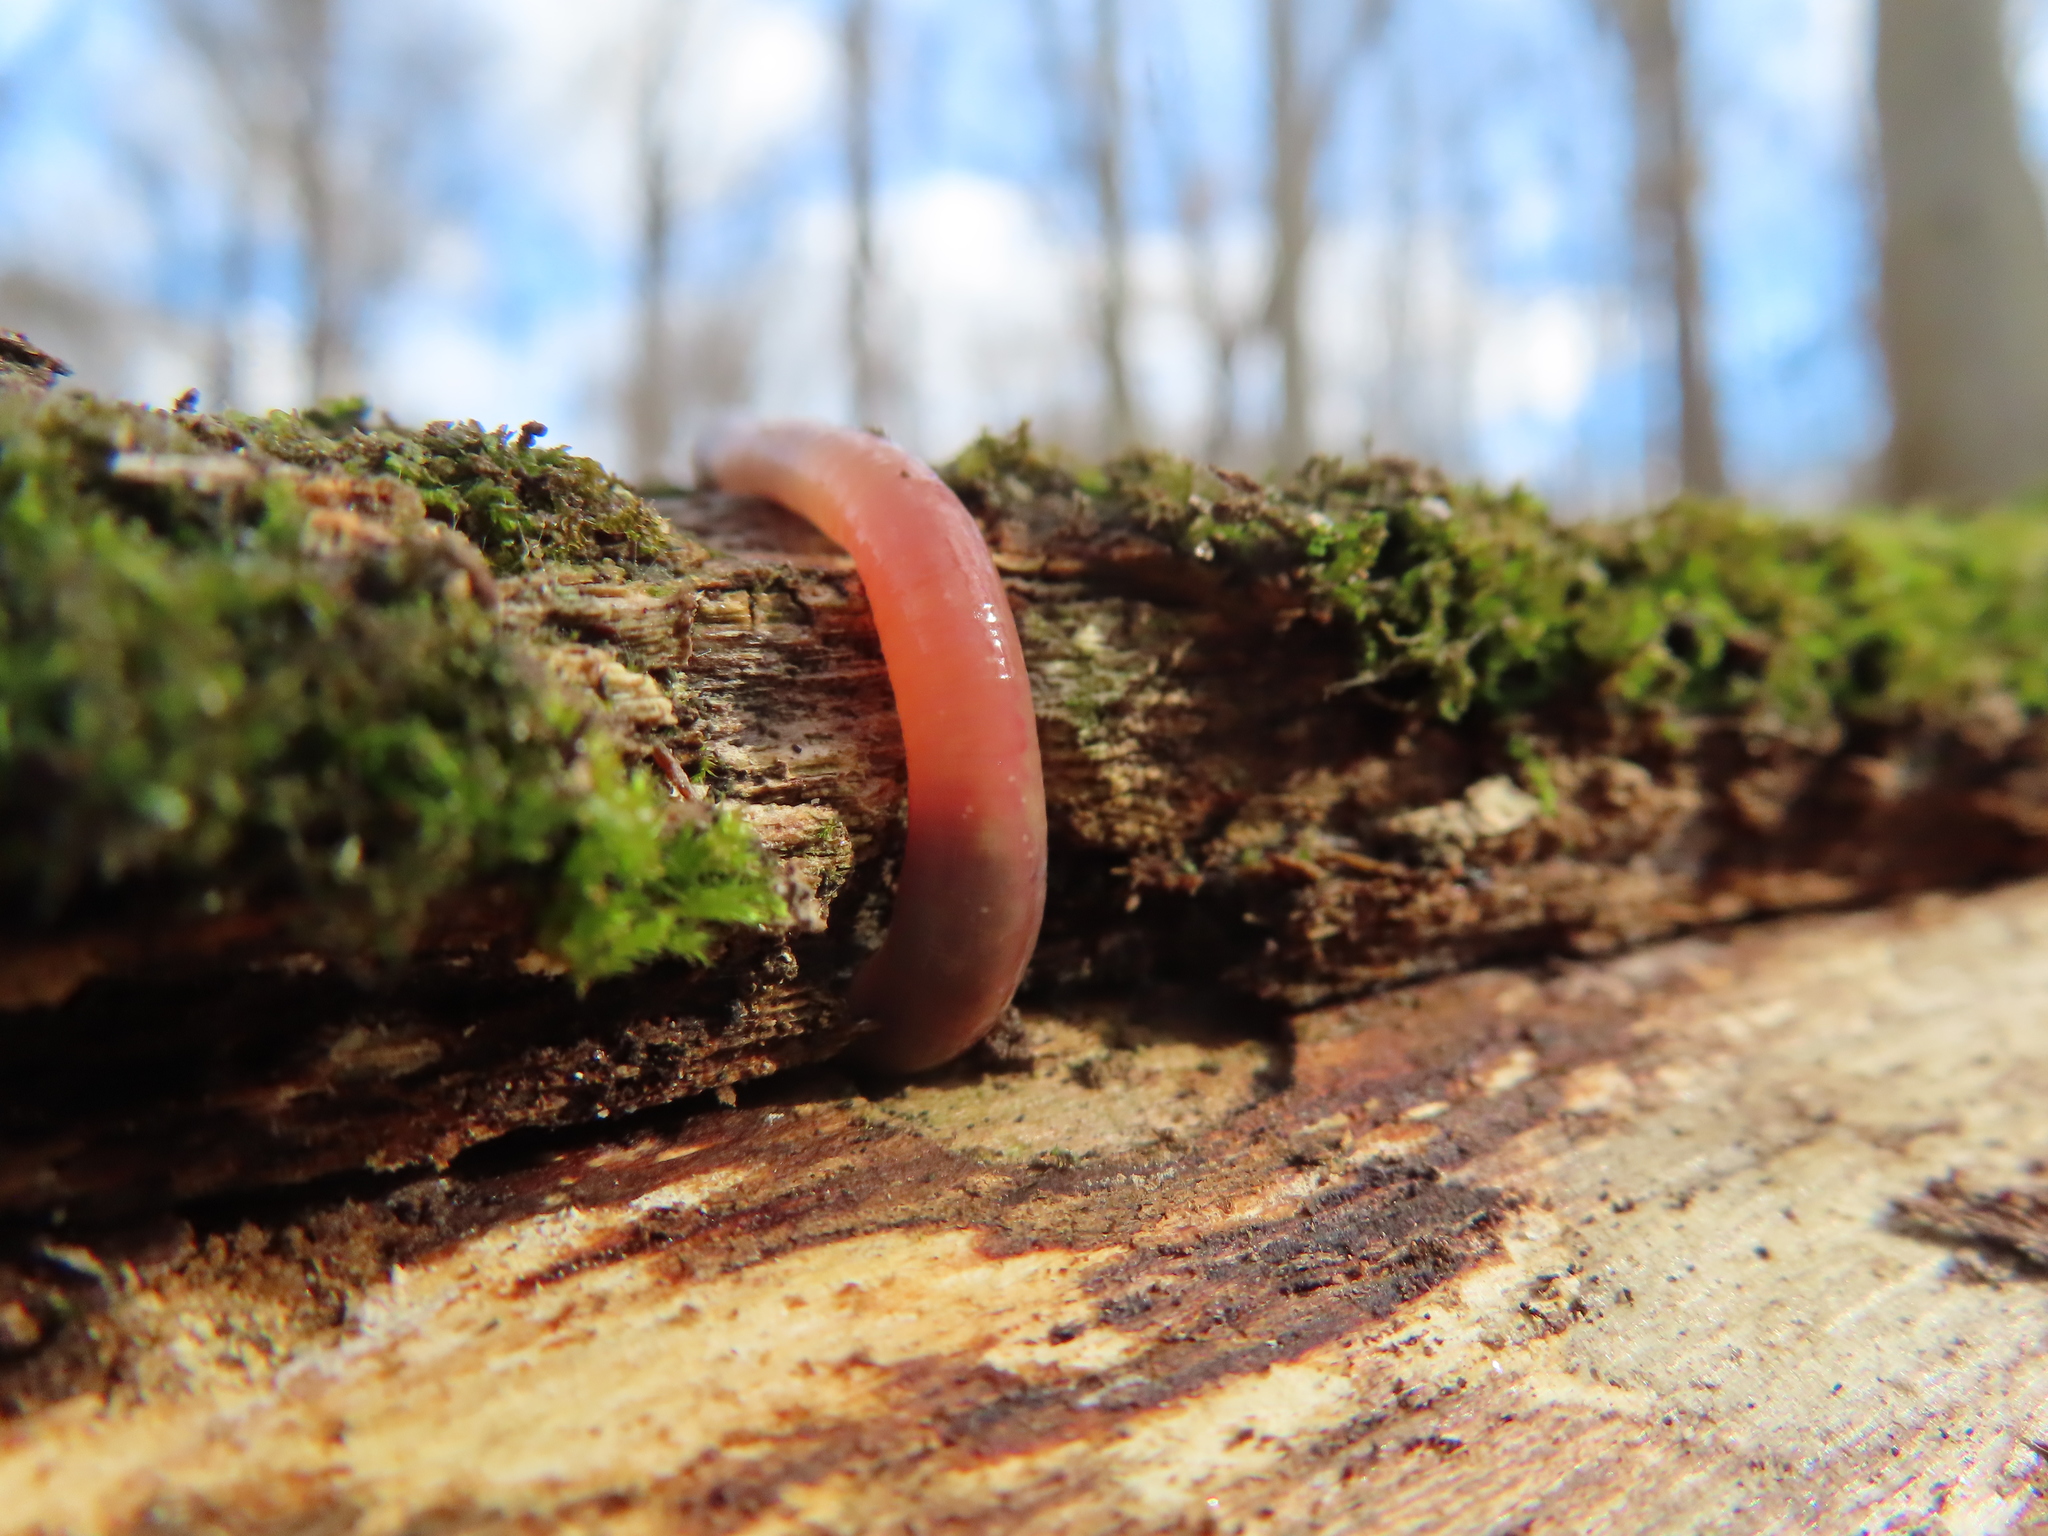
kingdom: Animalia
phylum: Annelida
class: Clitellata
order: Crassiclitellata
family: Lumbricidae
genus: Lumbricus
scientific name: Lumbricus terrestris
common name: Common earthworm
